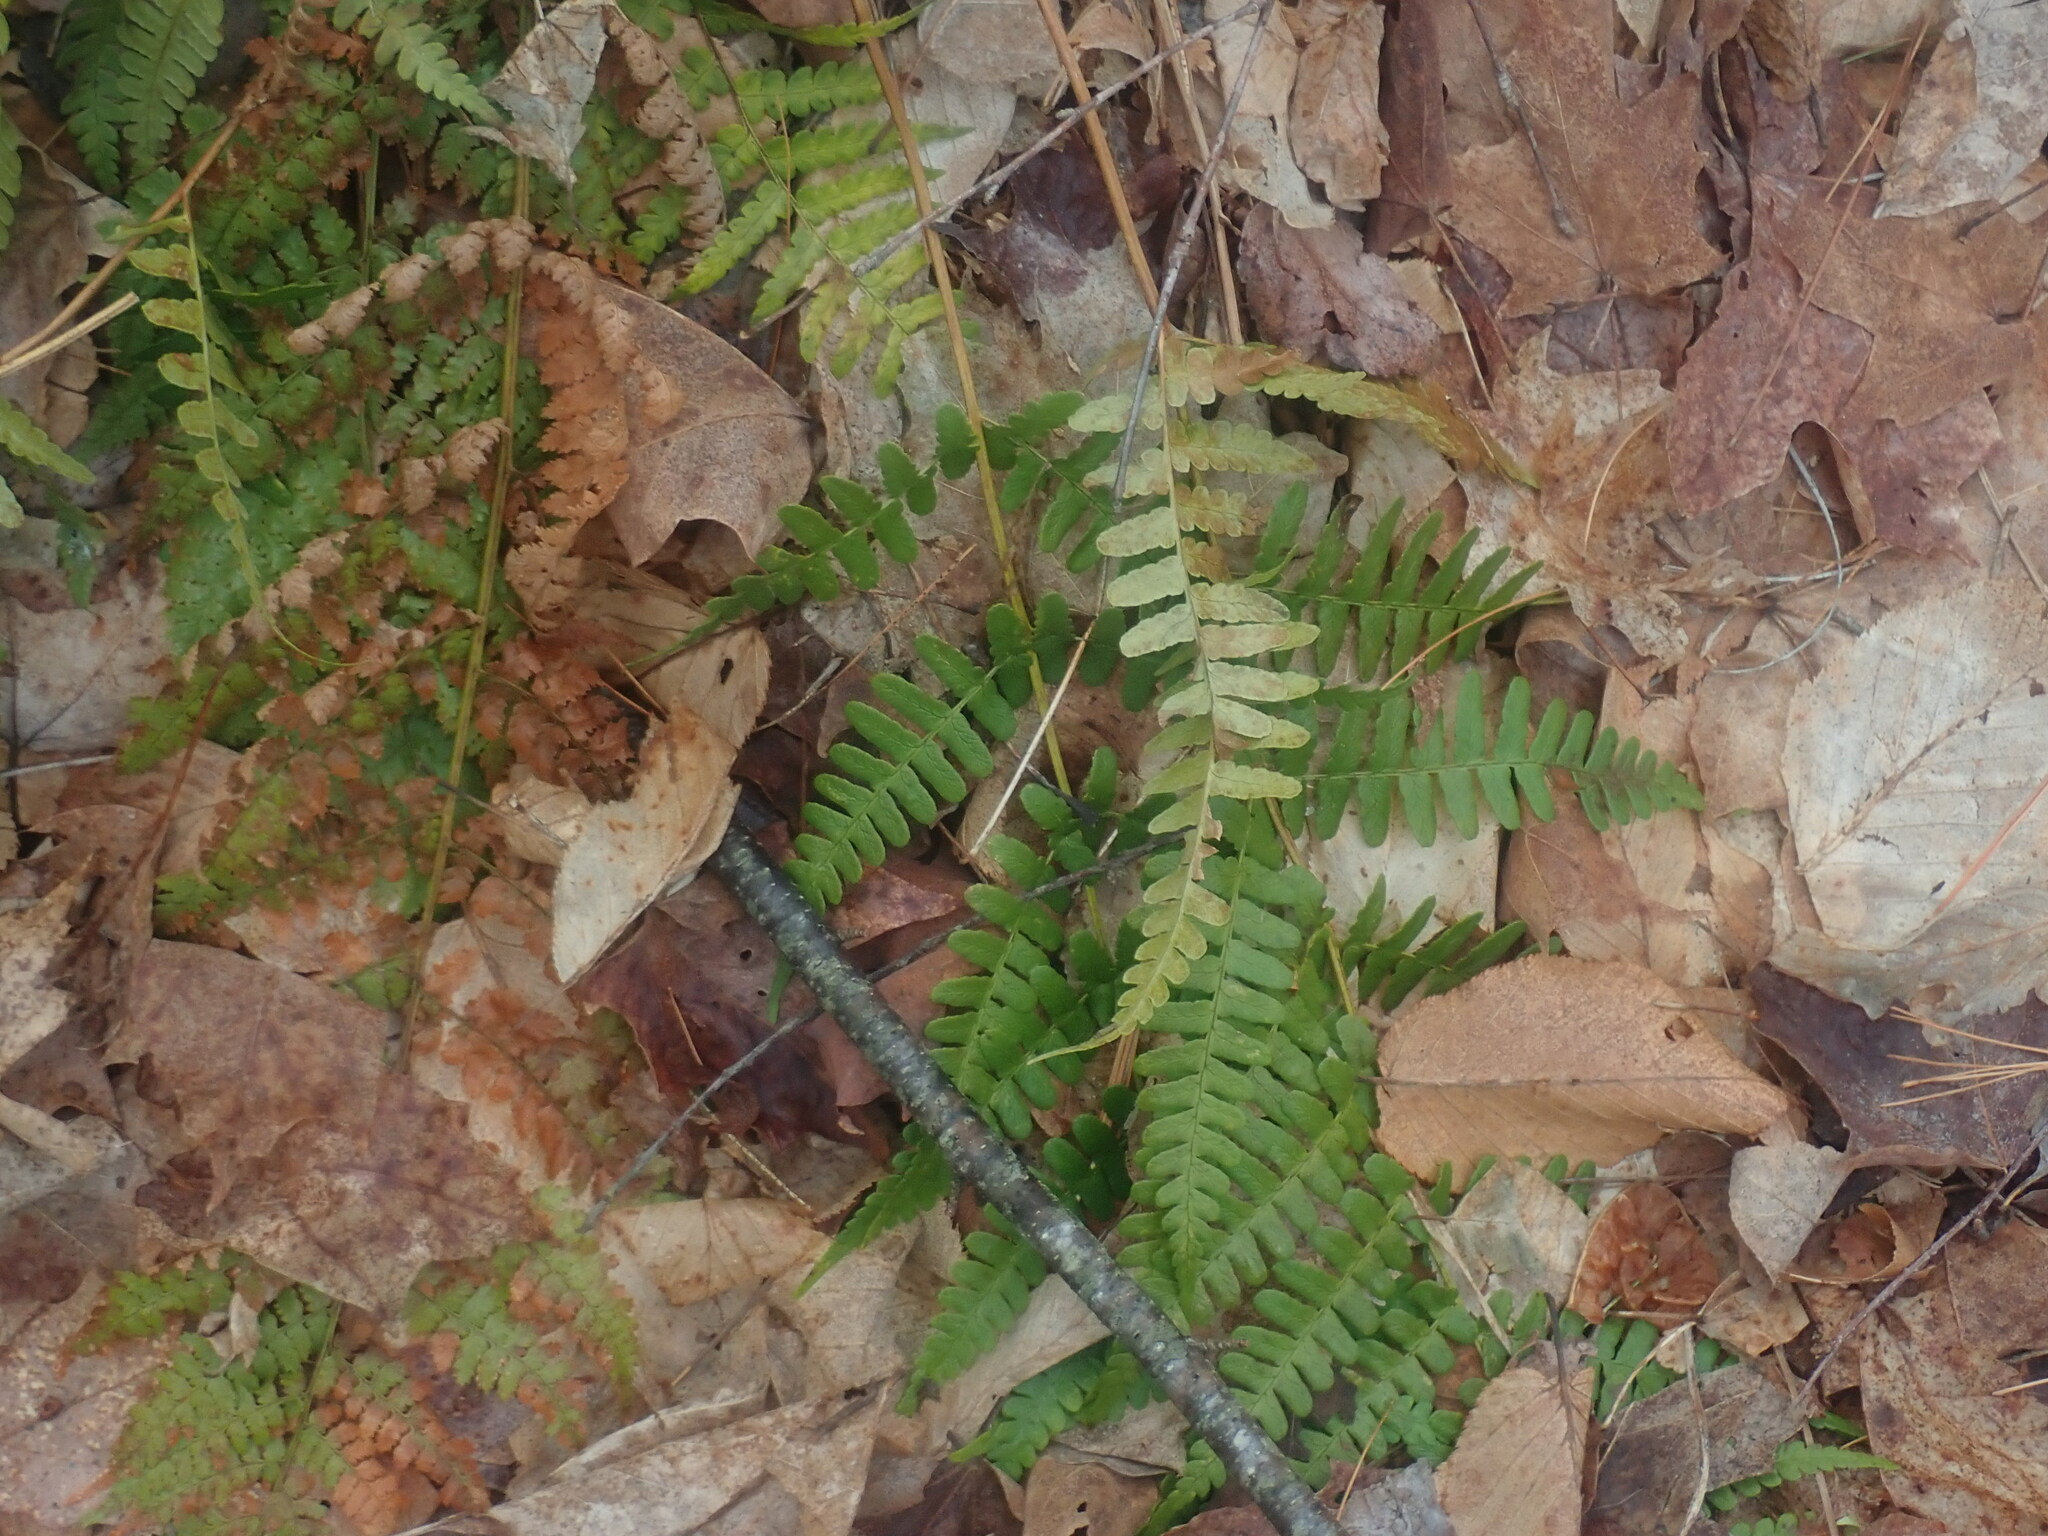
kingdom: Plantae
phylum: Tracheophyta
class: Polypodiopsida
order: Polypodiales
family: Dryopteridaceae
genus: Dryopteris
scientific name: Dryopteris marginalis
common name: Marginal wood fern
